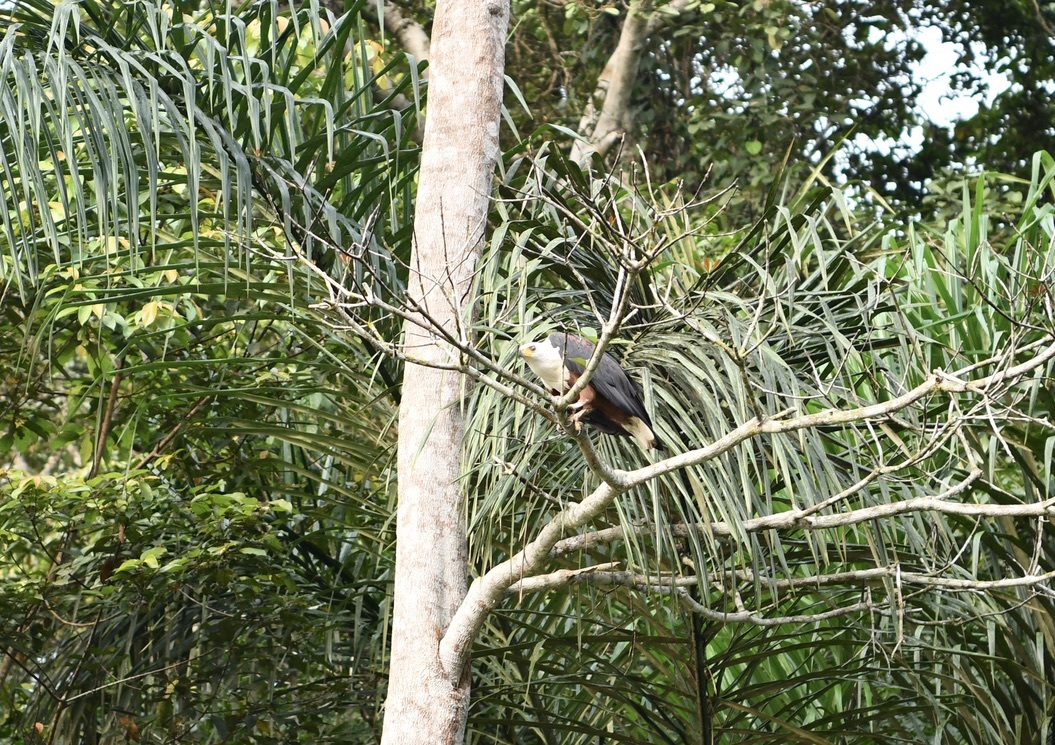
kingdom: Animalia
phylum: Chordata
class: Aves
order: Accipitriformes
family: Accipitridae
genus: Haliaeetus
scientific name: Haliaeetus vocifer
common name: African fish eagle
